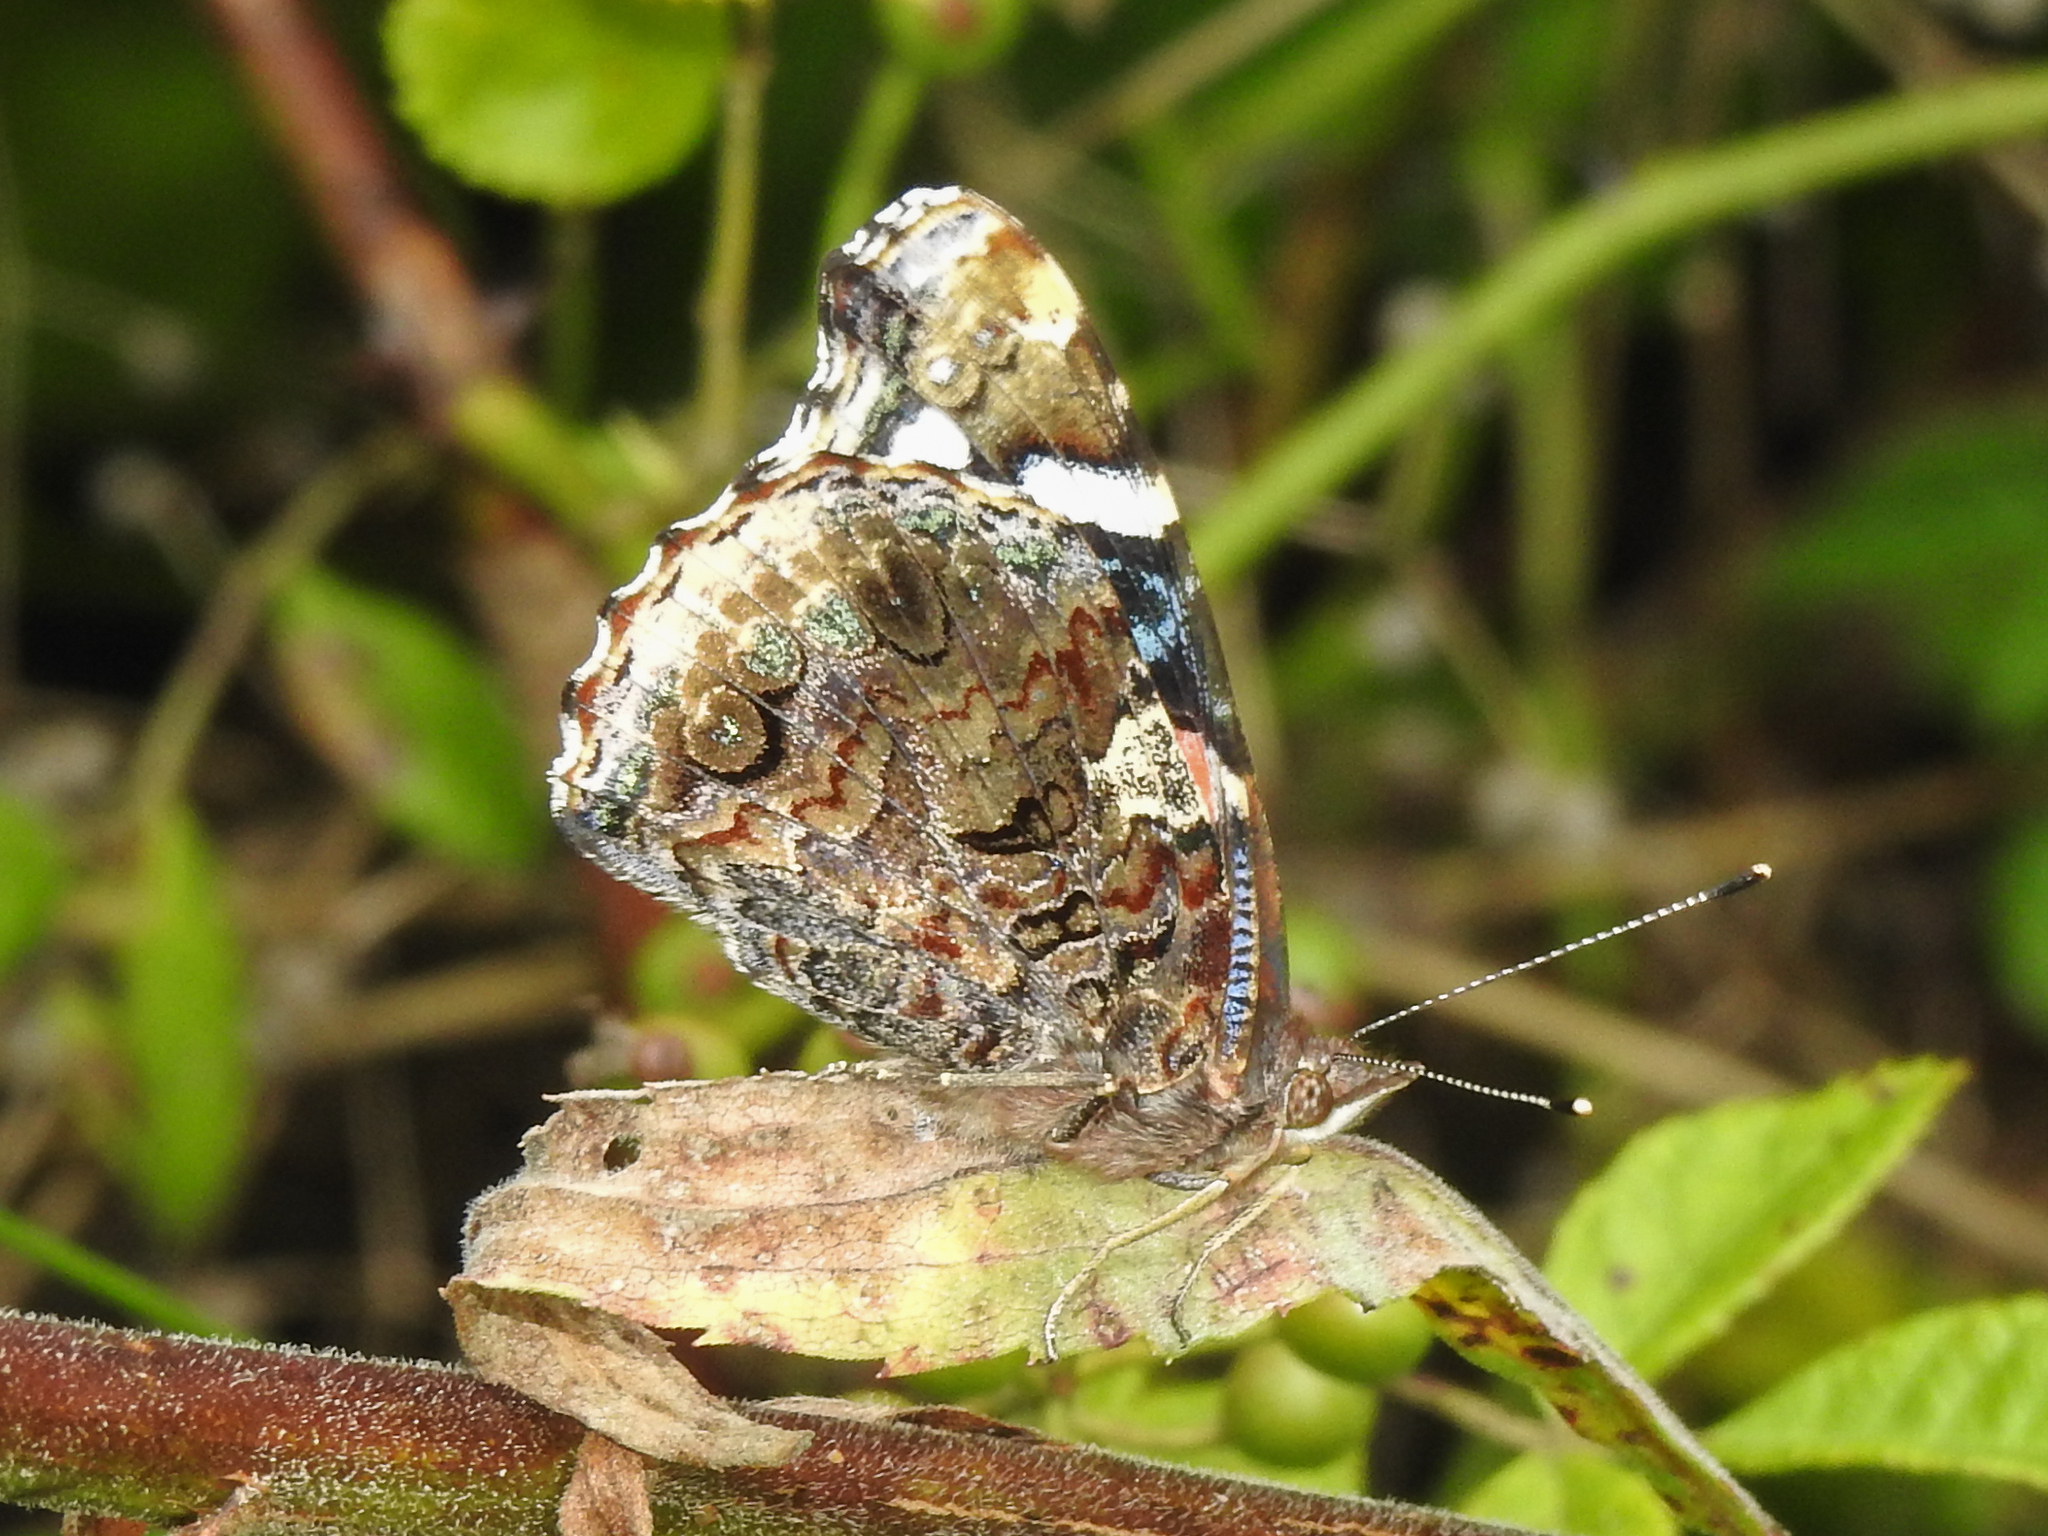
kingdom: Animalia
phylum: Arthropoda
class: Insecta
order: Lepidoptera
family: Nymphalidae
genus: Vanessa
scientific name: Vanessa atalanta
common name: Red admiral
